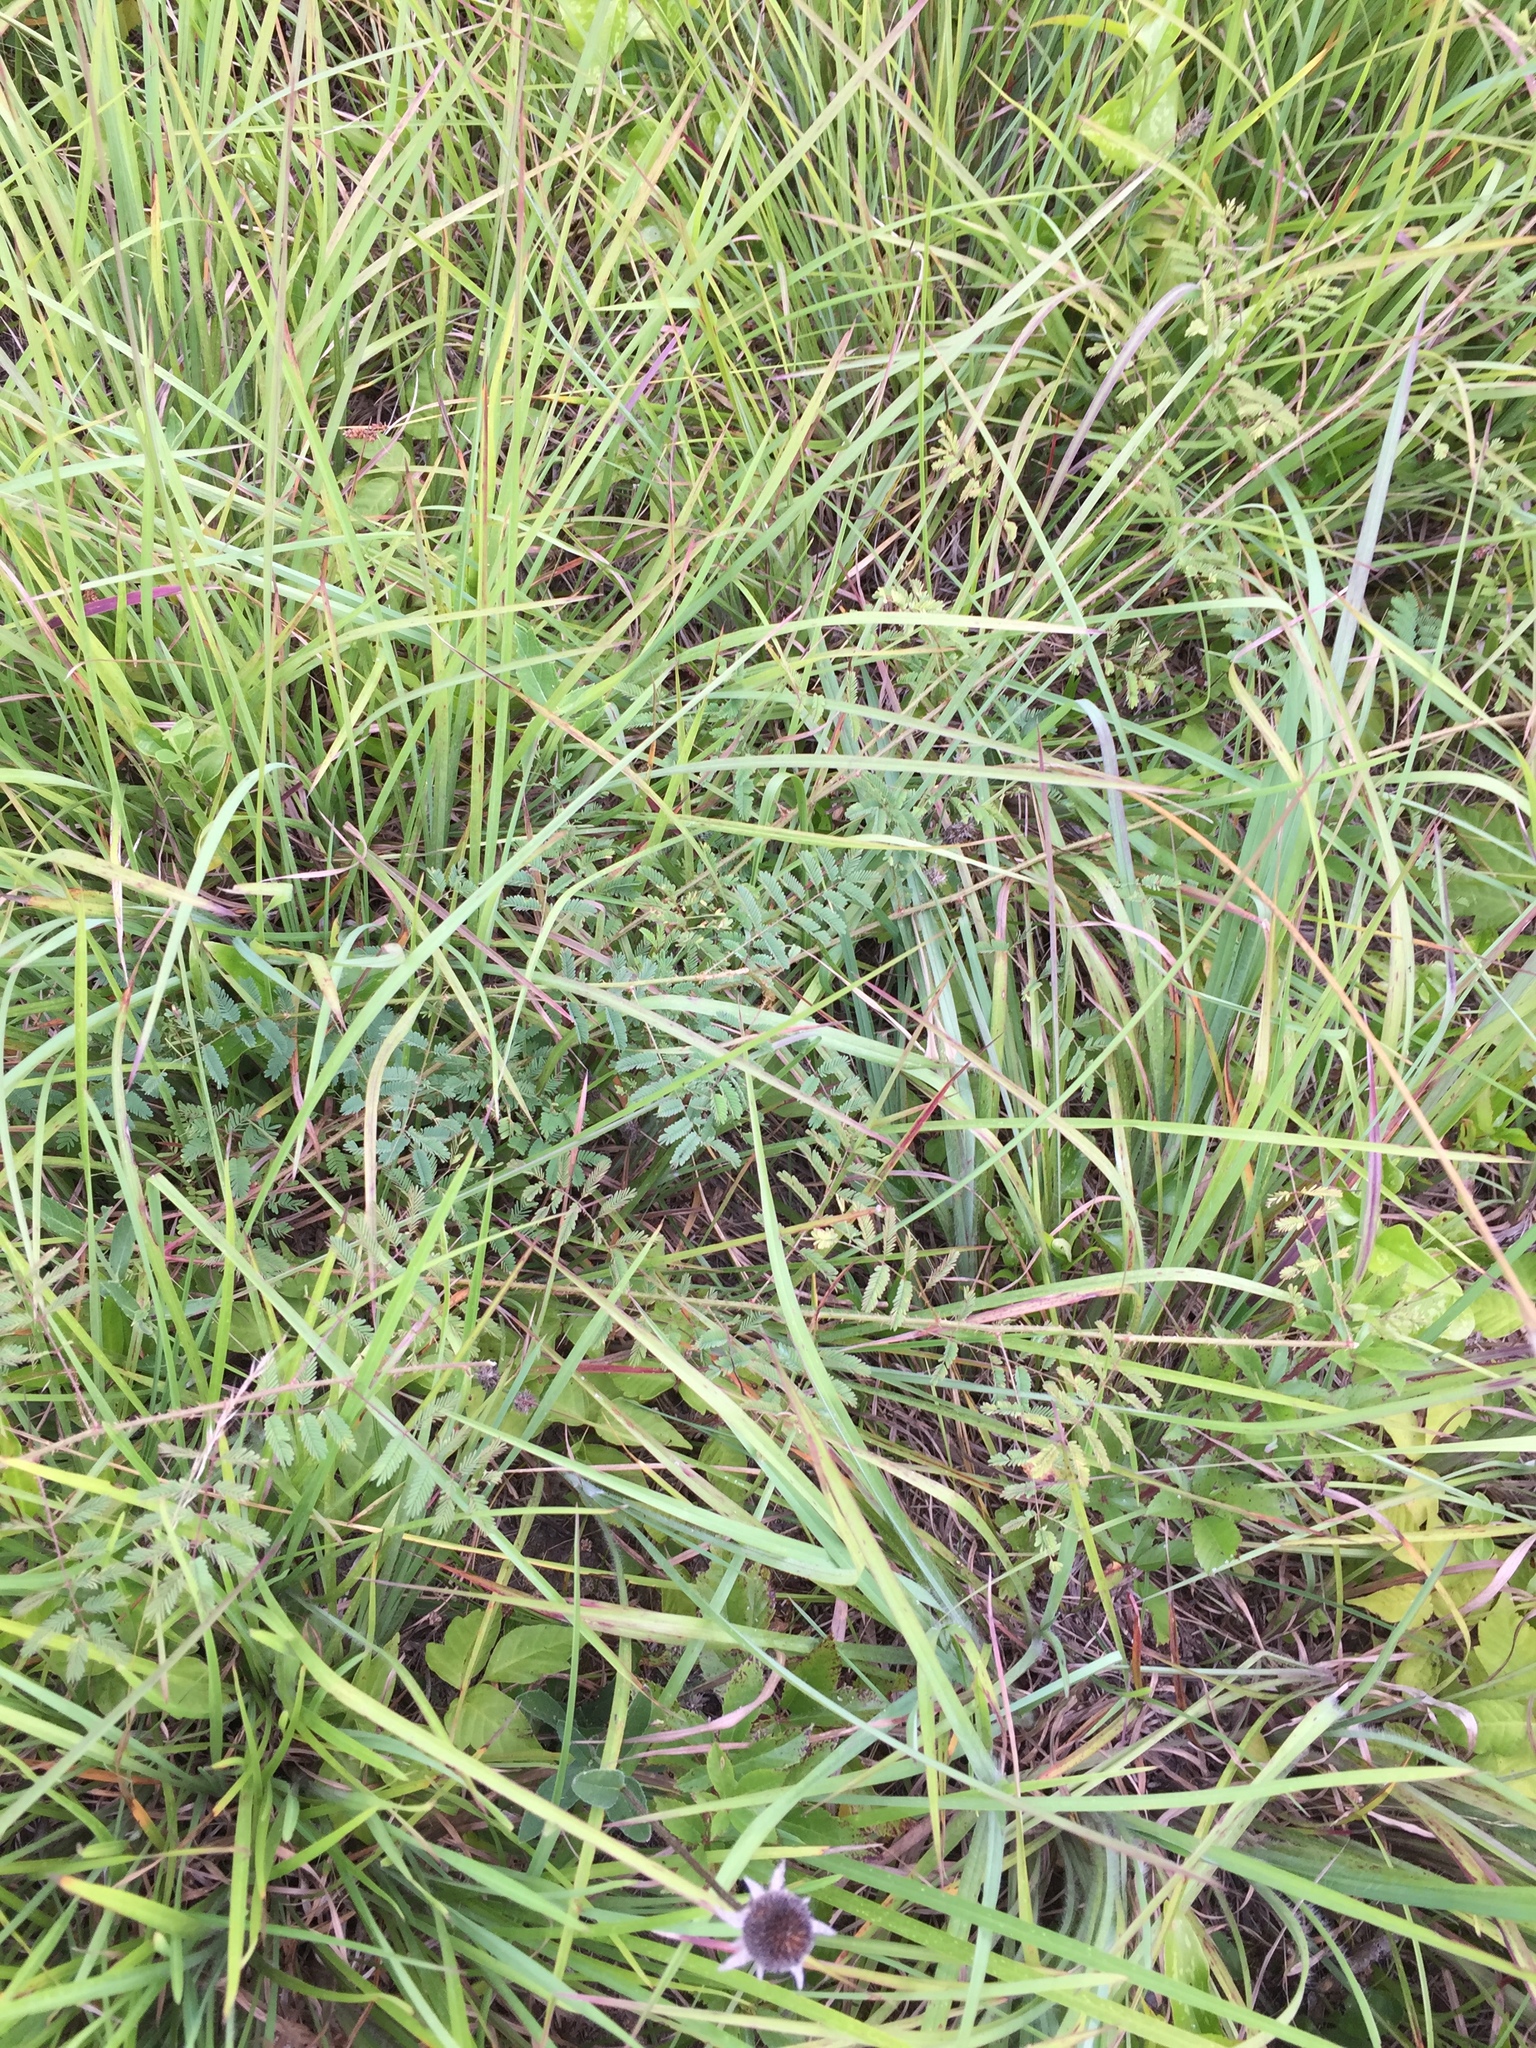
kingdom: Plantae
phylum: Tracheophyta
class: Magnoliopsida
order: Fabales
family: Fabaceae
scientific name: Fabaceae
